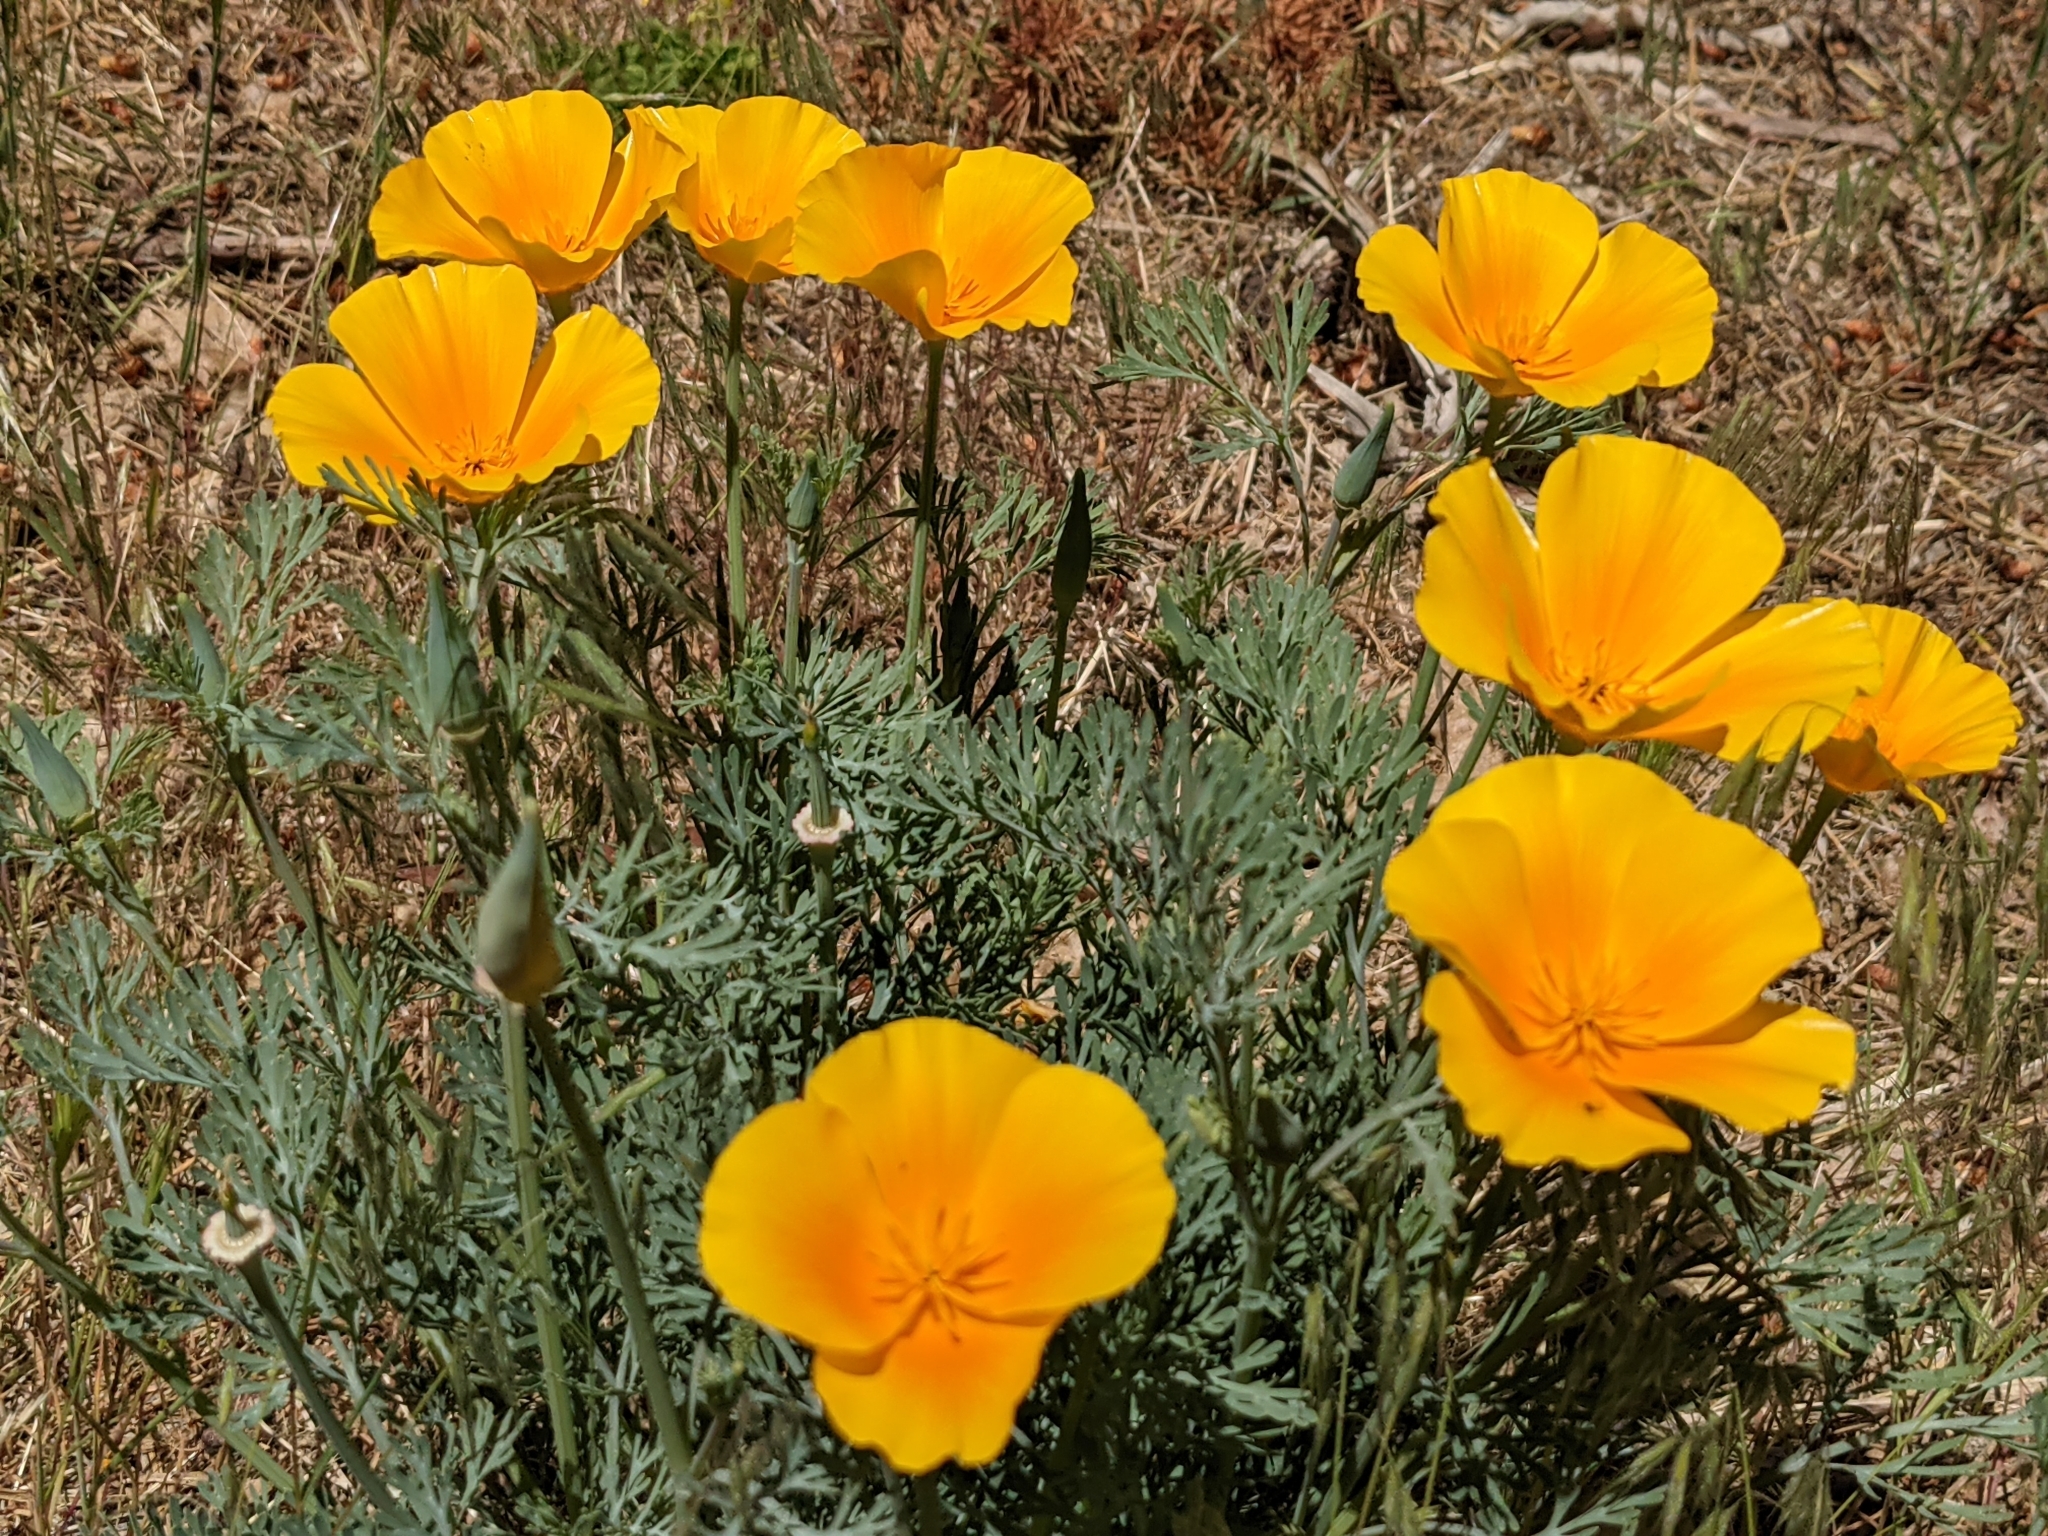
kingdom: Plantae
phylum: Tracheophyta
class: Magnoliopsida
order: Ranunculales
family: Papaveraceae
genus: Eschscholzia
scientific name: Eschscholzia californica
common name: California poppy
